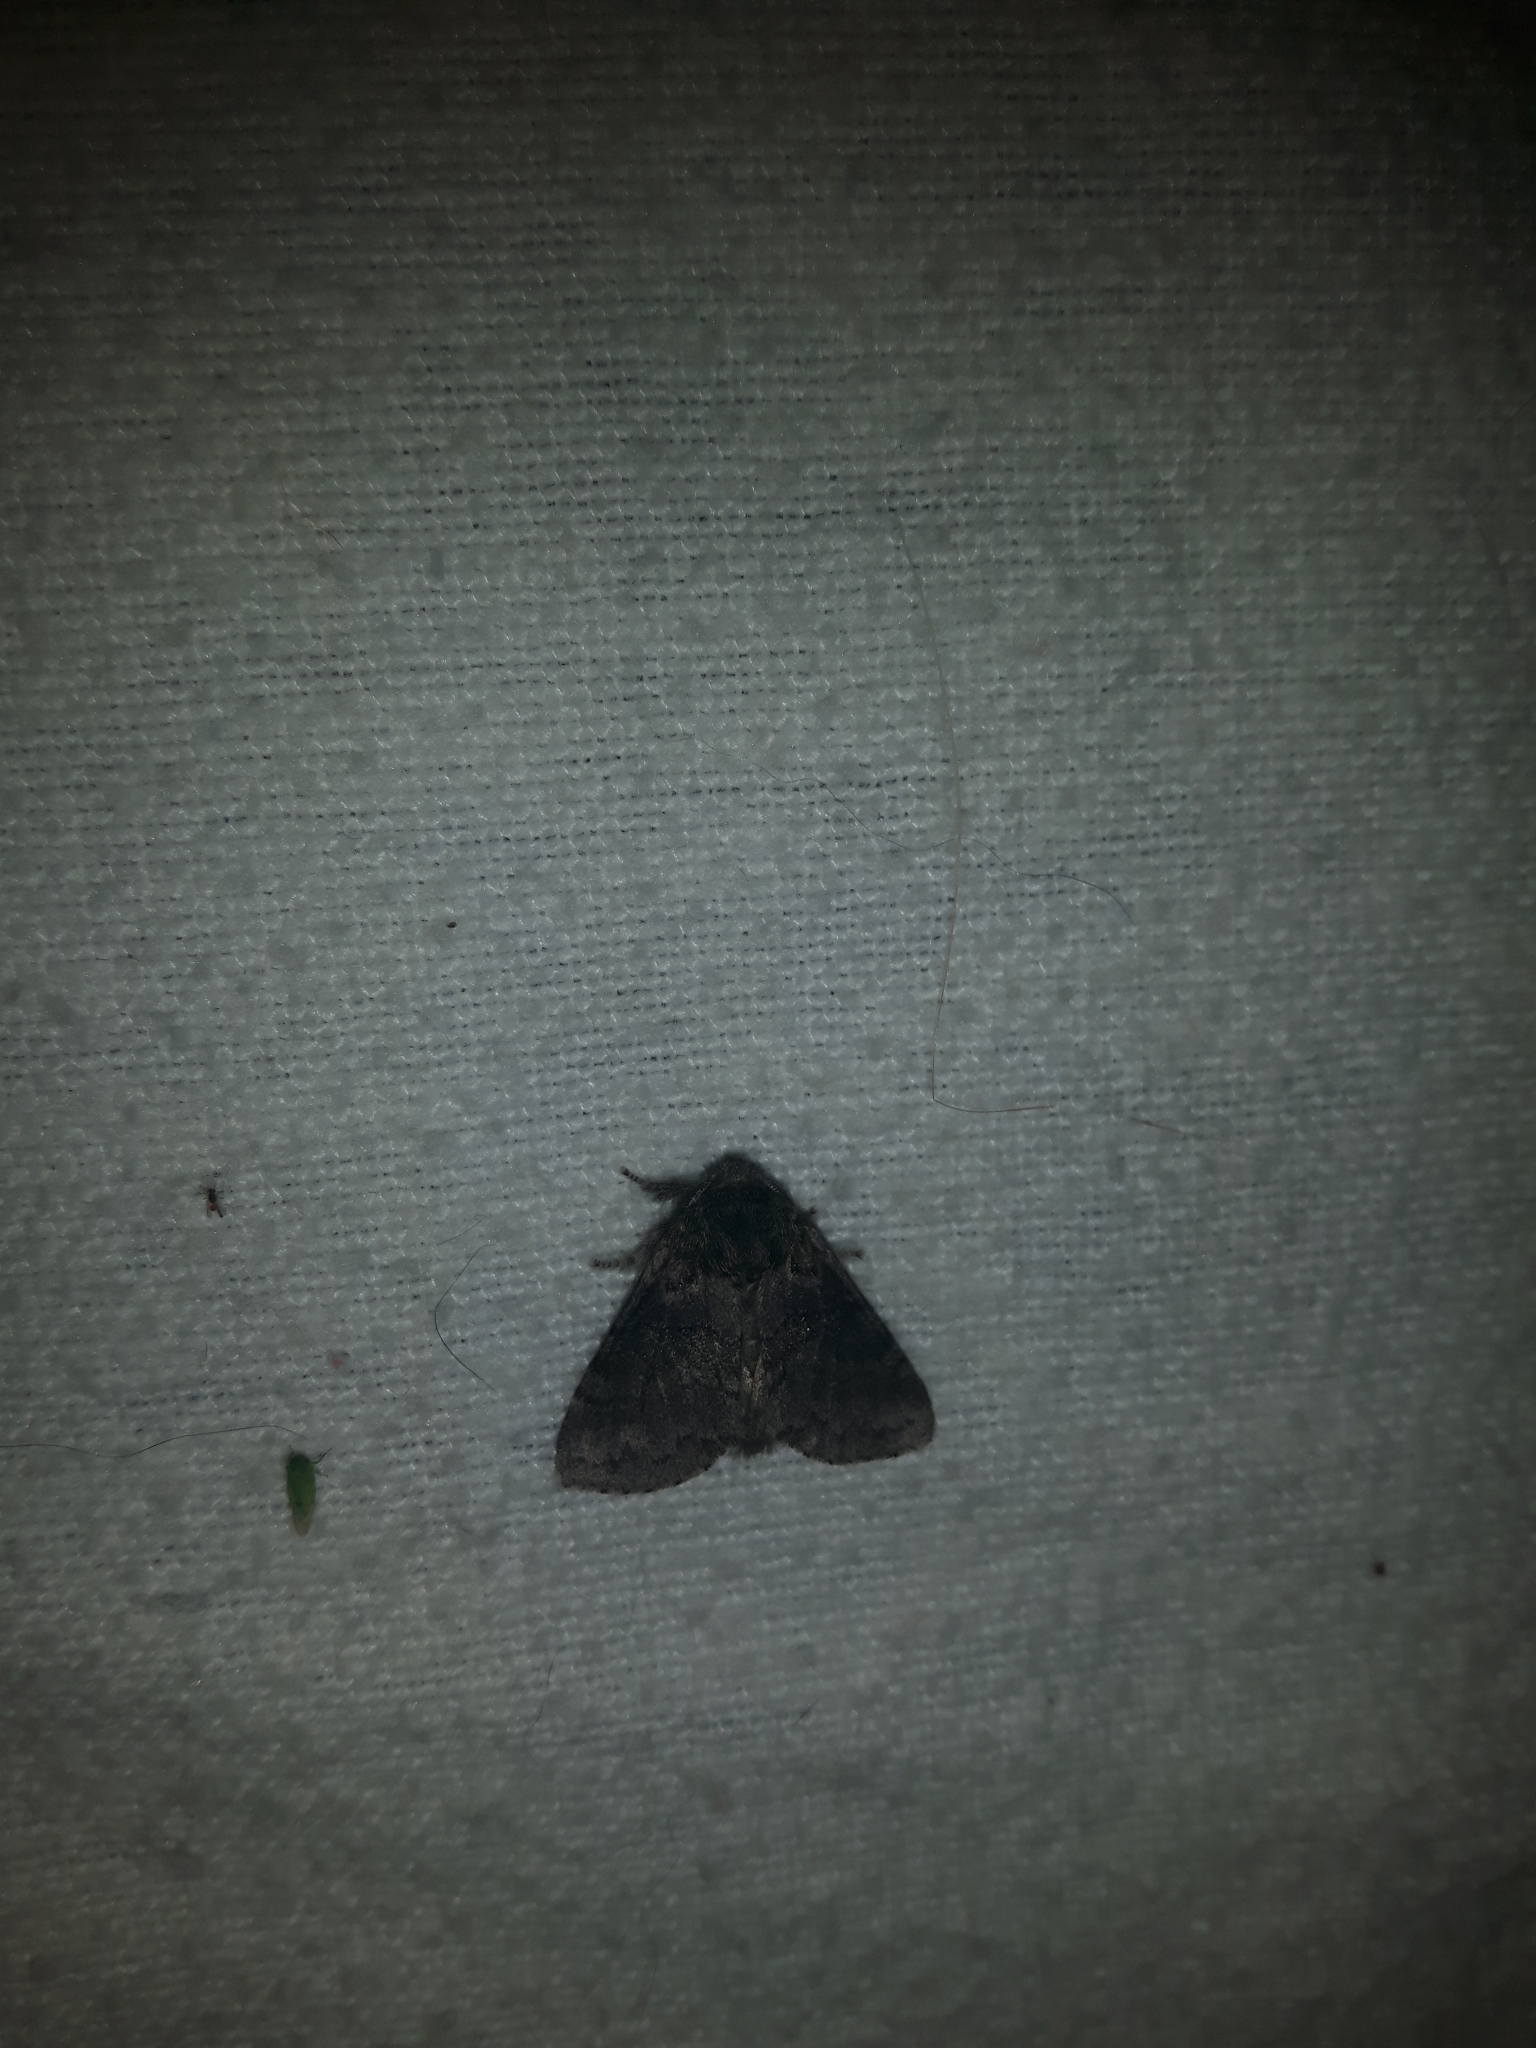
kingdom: Animalia
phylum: Arthropoda
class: Insecta
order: Lepidoptera
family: Notodontidae
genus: Gluphisia
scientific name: Gluphisia septentrionis
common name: Common gluphisia
